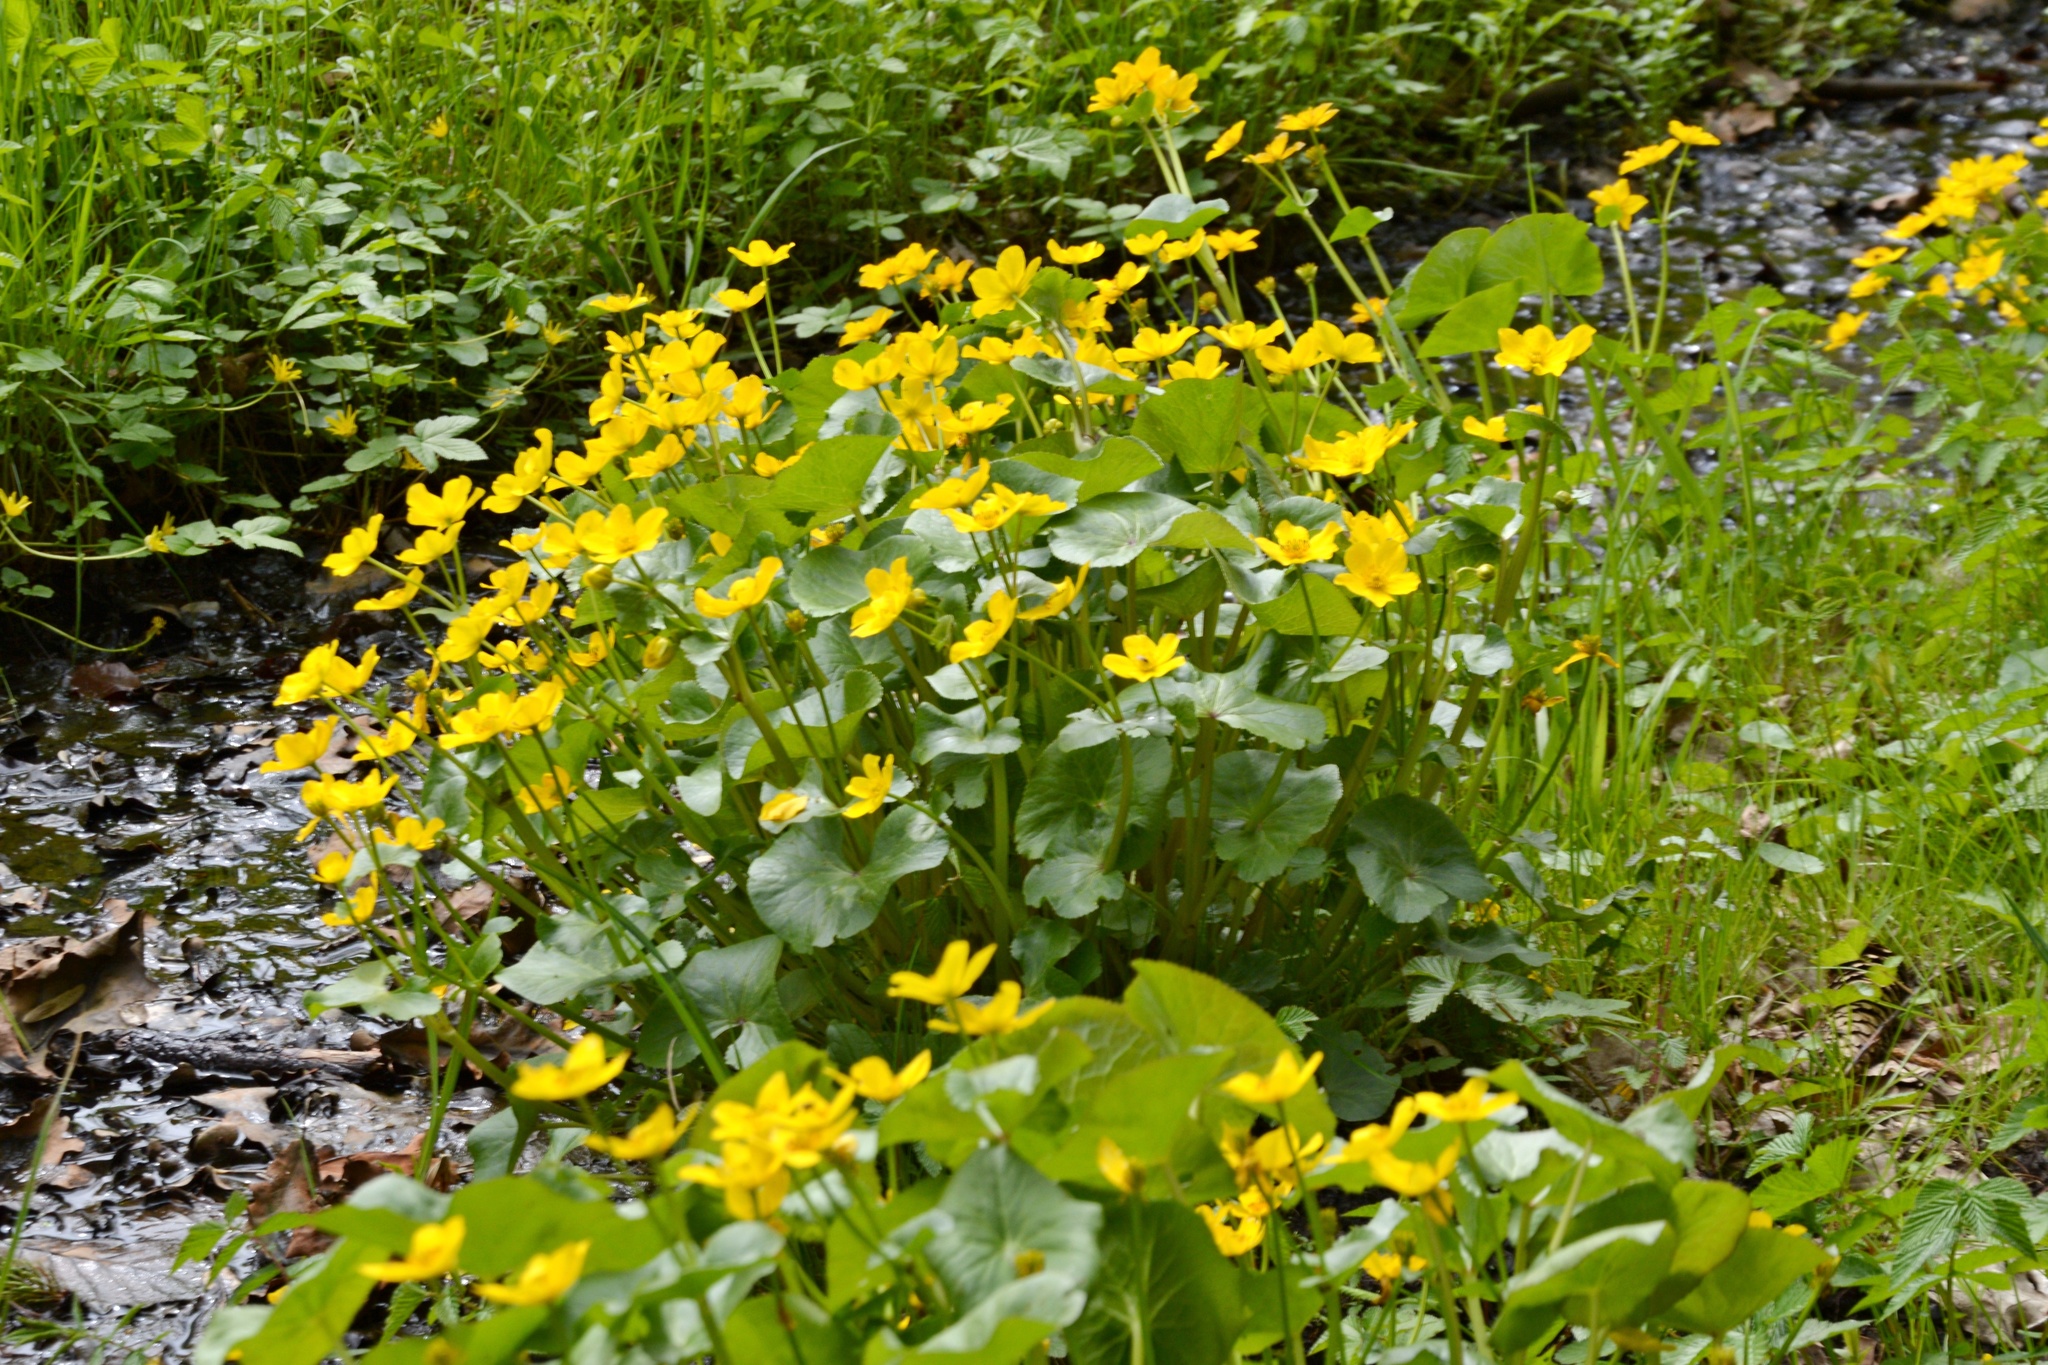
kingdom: Plantae
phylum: Tracheophyta
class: Magnoliopsida
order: Ranunculales
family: Ranunculaceae
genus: Caltha
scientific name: Caltha palustris
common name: Marsh marigold
